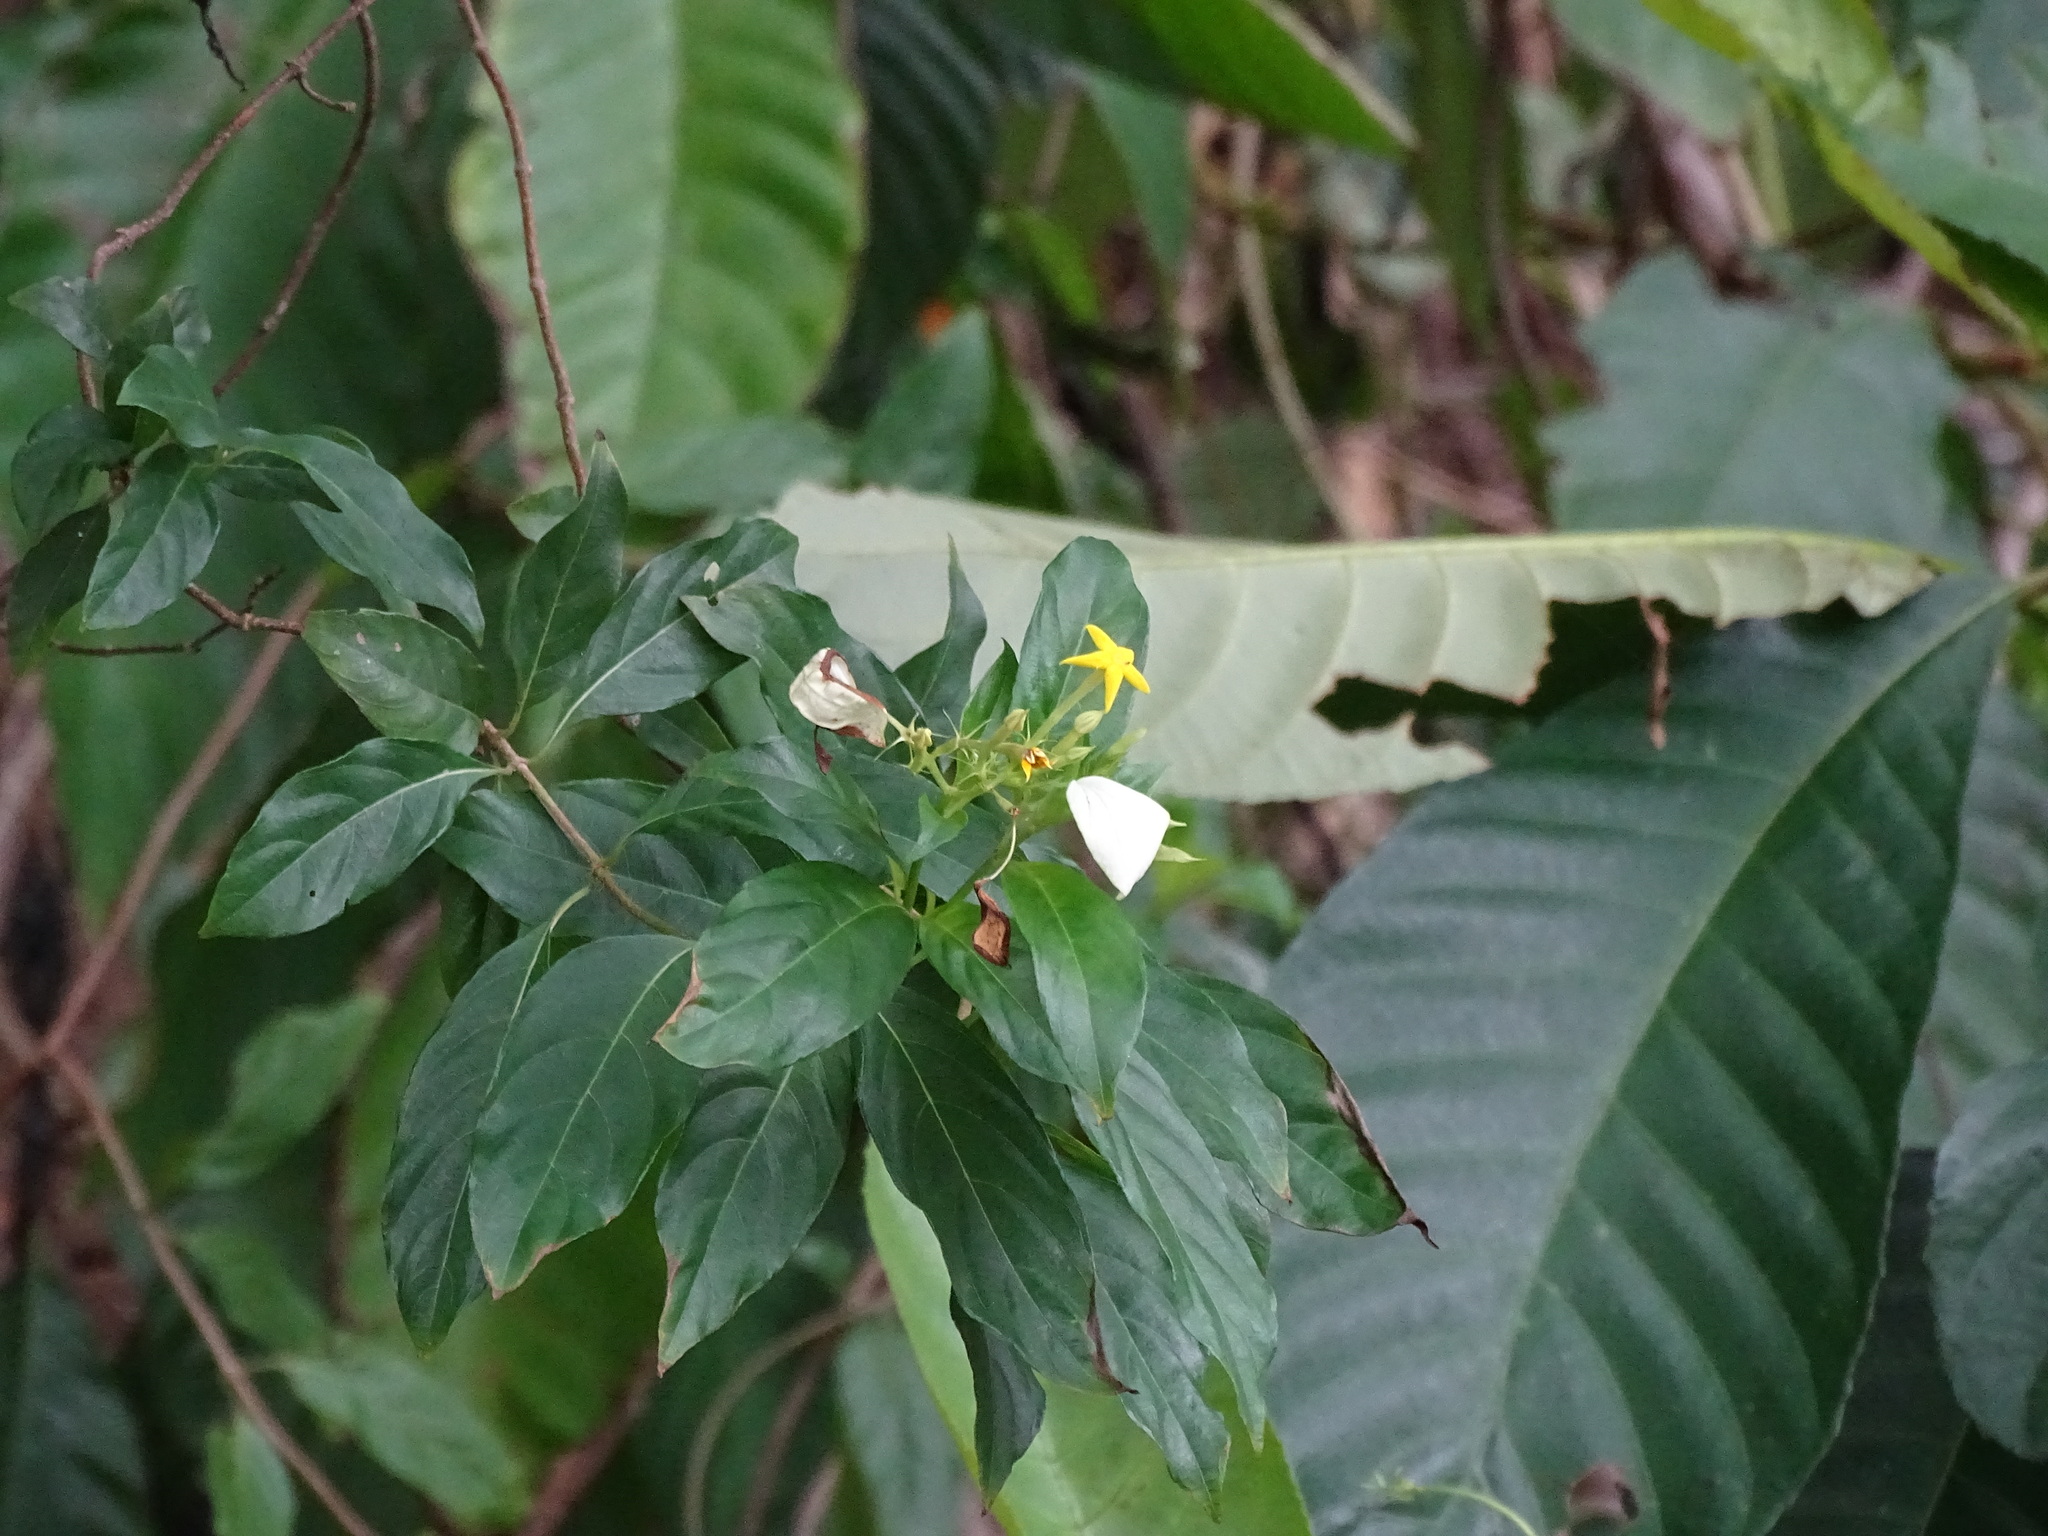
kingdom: Plantae
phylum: Tracheophyta
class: Magnoliopsida
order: Gentianales
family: Rubiaceae
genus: Mussaenda
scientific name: Mussaenda formosana
